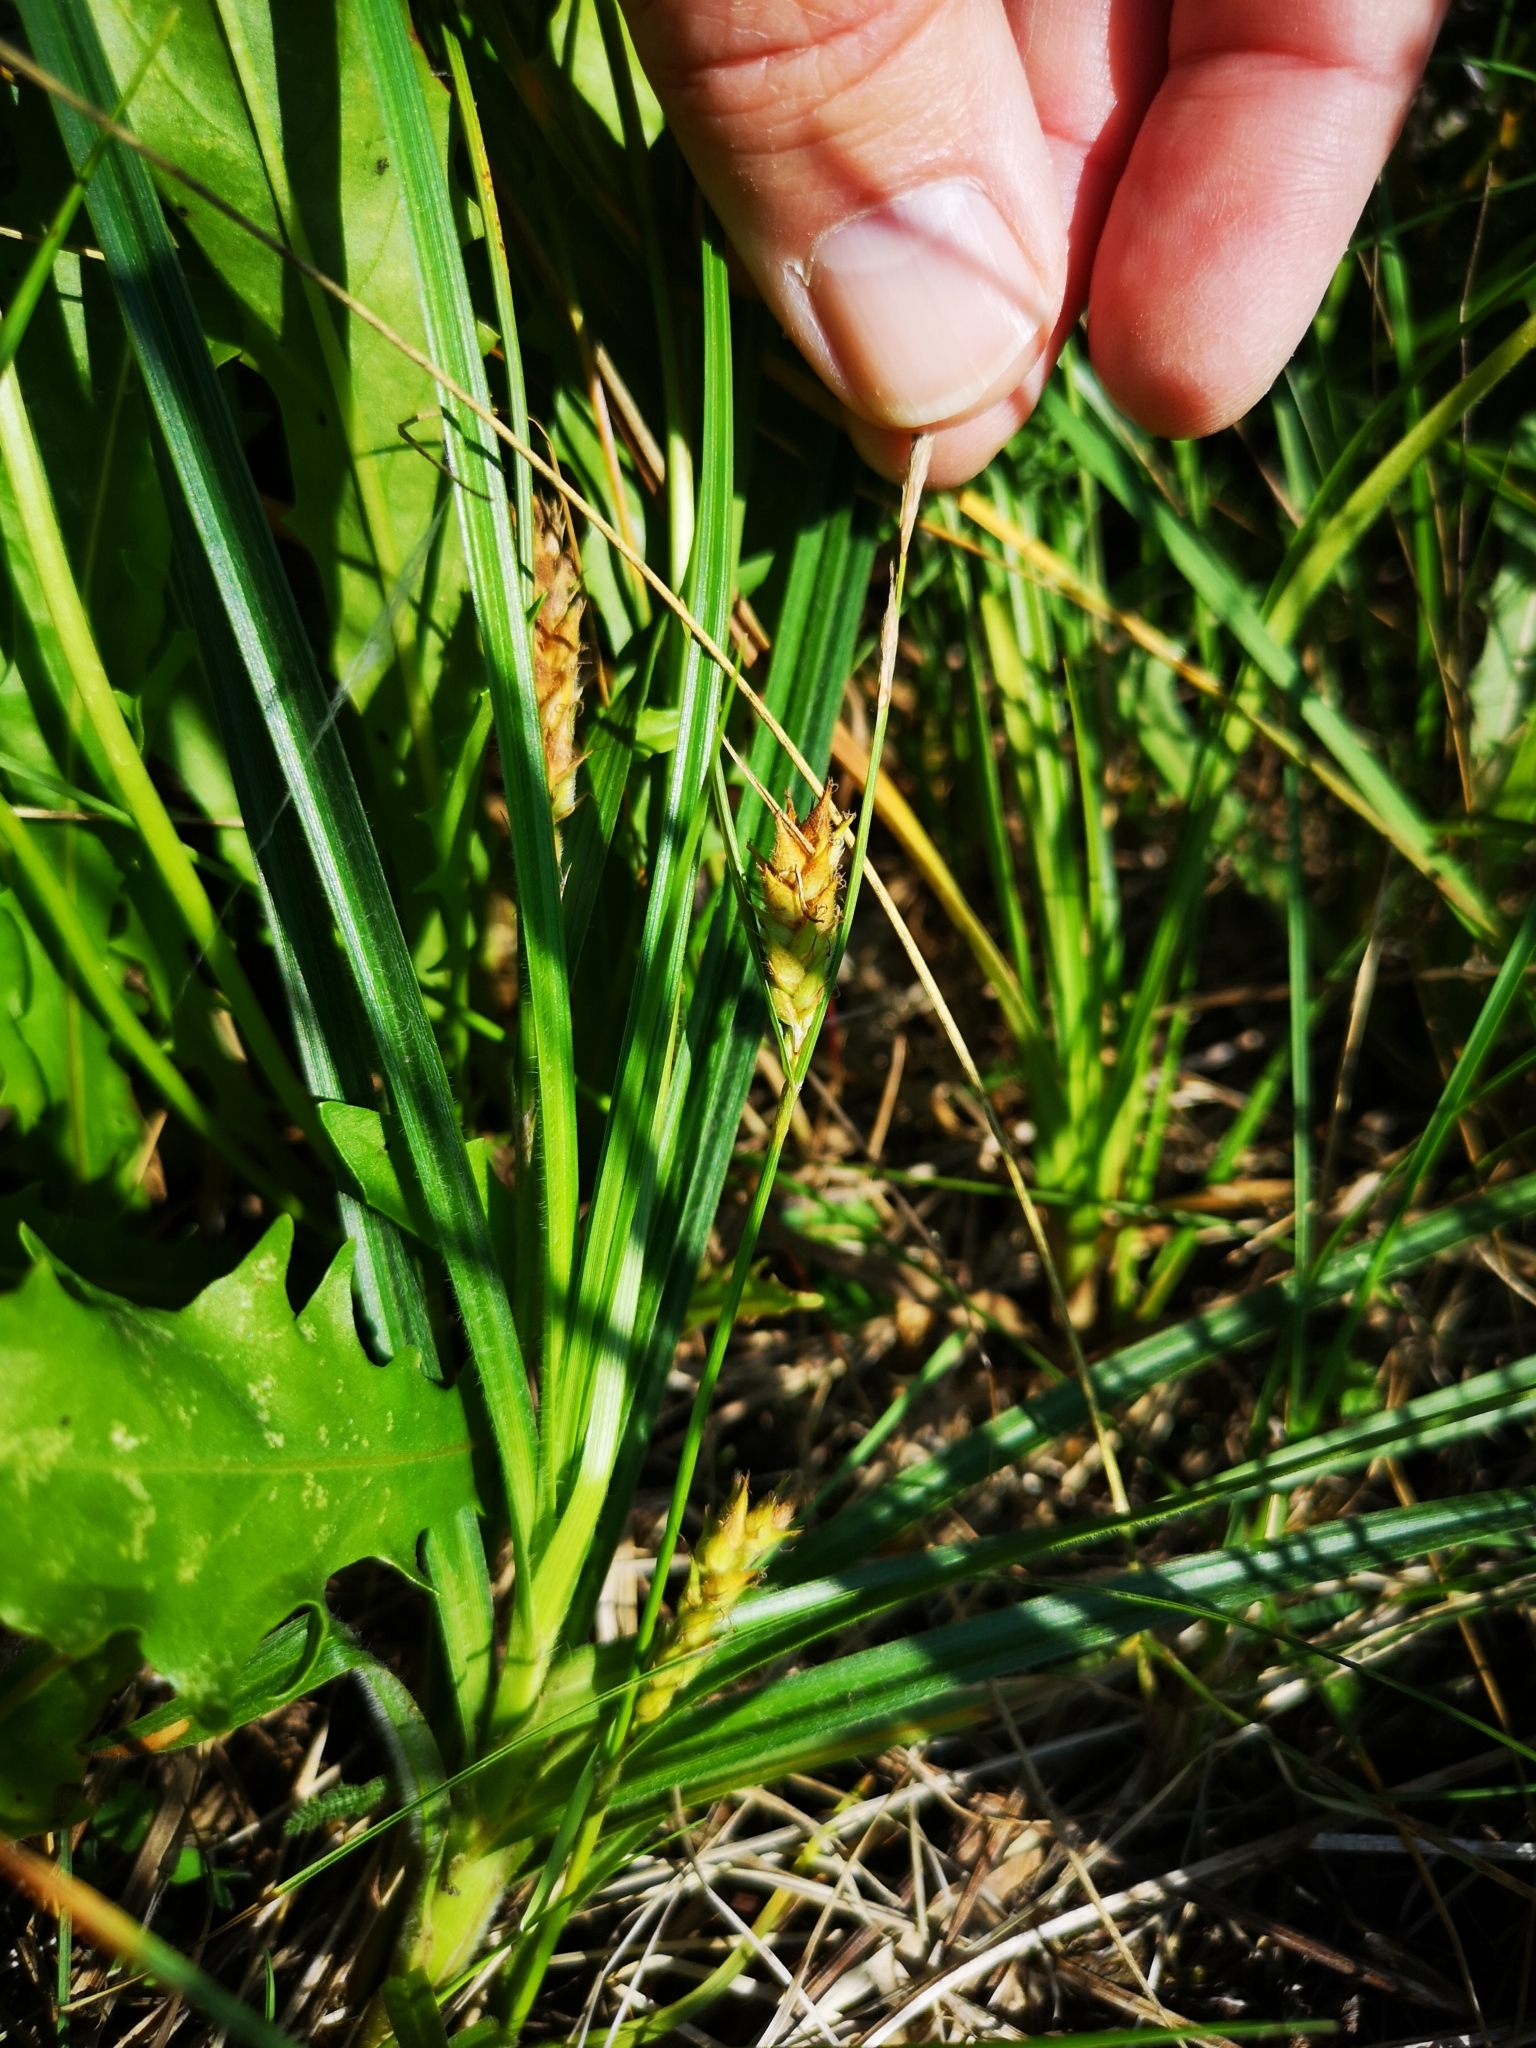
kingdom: Plantae
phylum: Tracheophyta
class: Liliopsida
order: Poales
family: Cyperaceae
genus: Carex
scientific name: Carex hirta
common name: Hairy sedge
